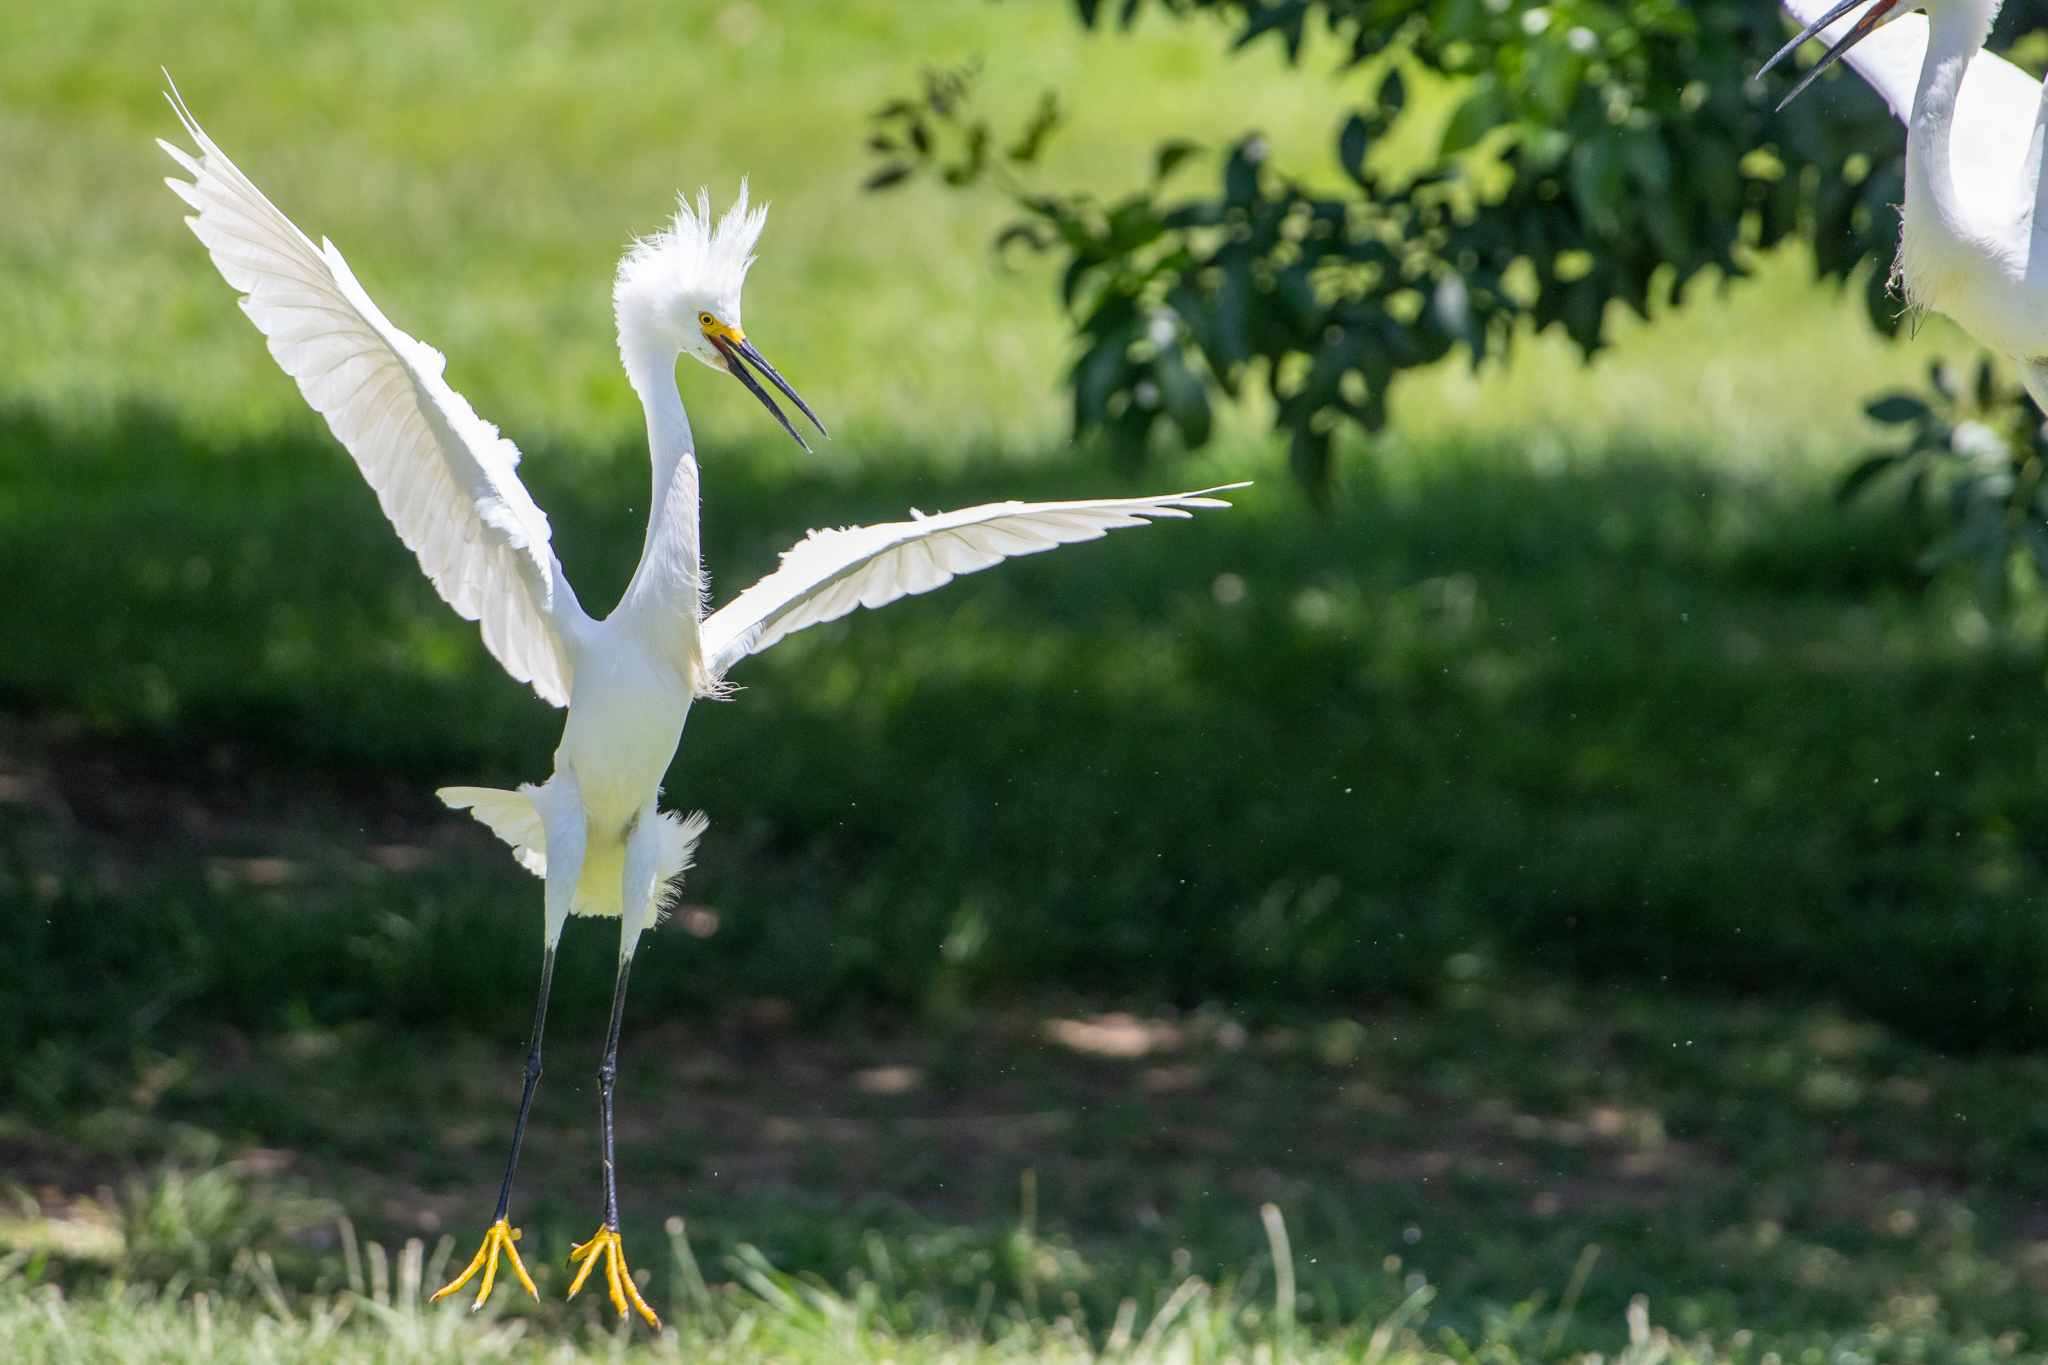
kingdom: Animalia
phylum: Chordata
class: Aves
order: Pelecaniformes
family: Ardeidae
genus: Egretta
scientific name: Egretta thula
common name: Snowy egret
